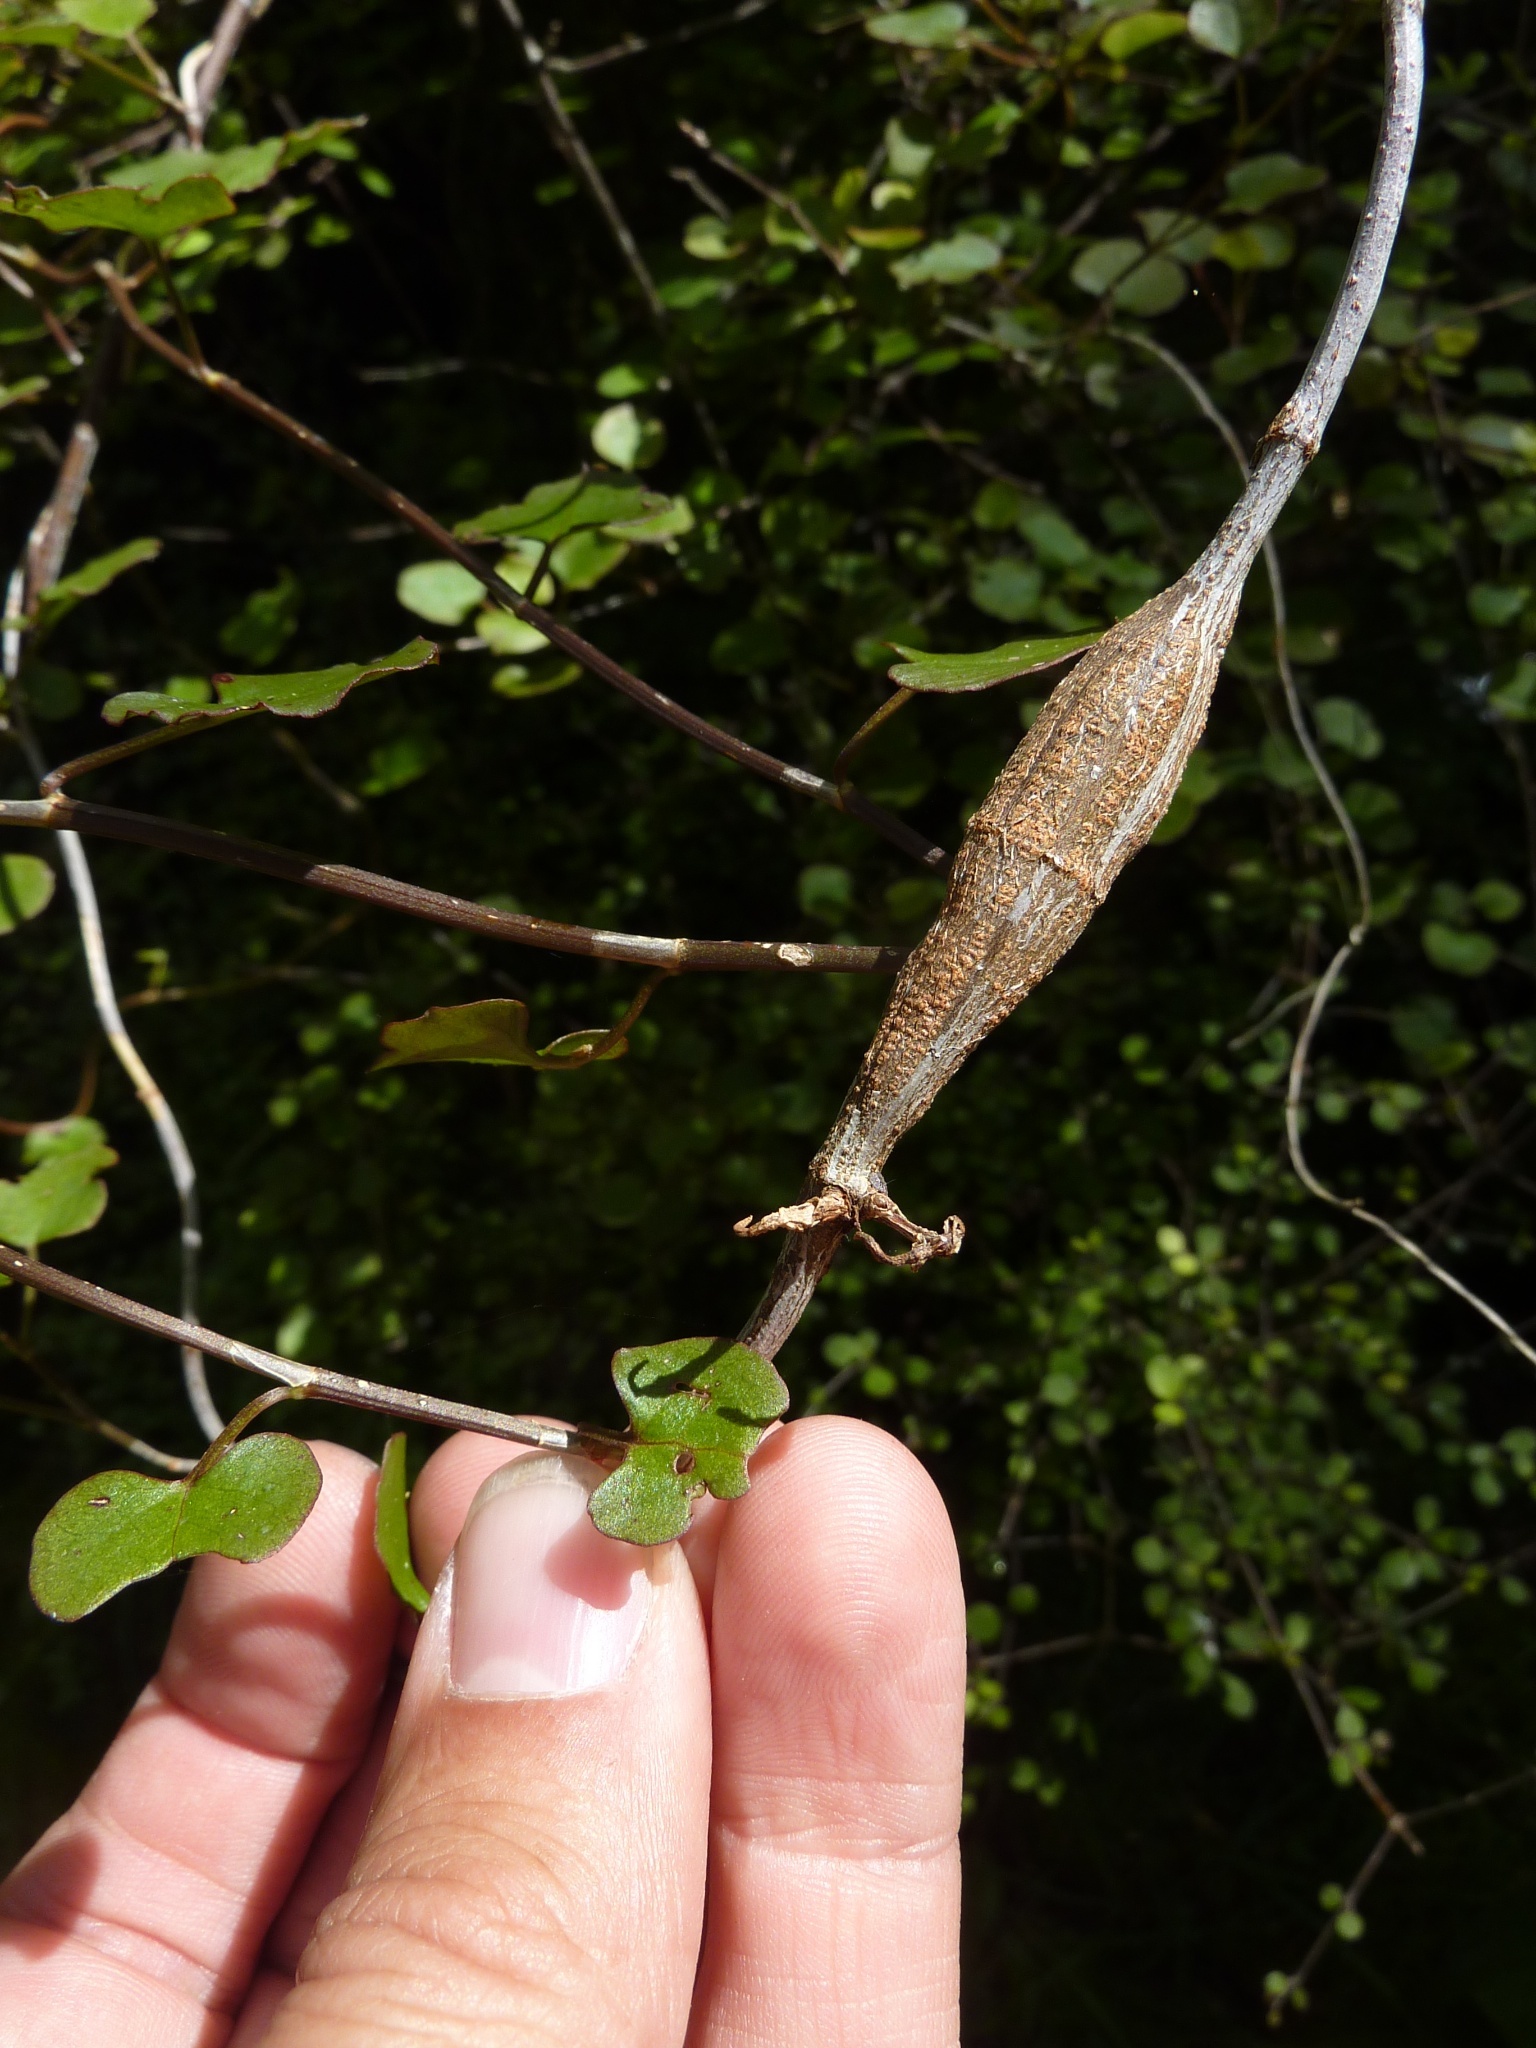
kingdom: Animalia
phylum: Arthropoda
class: Insecta
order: Lepidoptera
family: Thyrididae
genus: Morova
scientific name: Morova subfasciata
